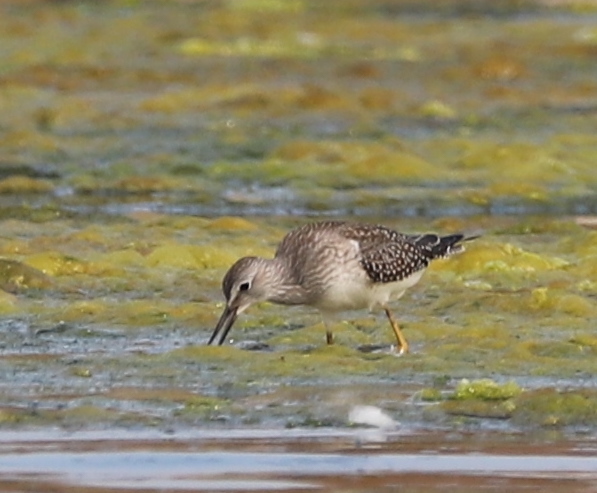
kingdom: Animalia
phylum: Chordata
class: Aves
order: Charadriiformes
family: Scolopacidae
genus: Tringa
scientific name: Tringa flavipes
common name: Lesser yellowlegs
